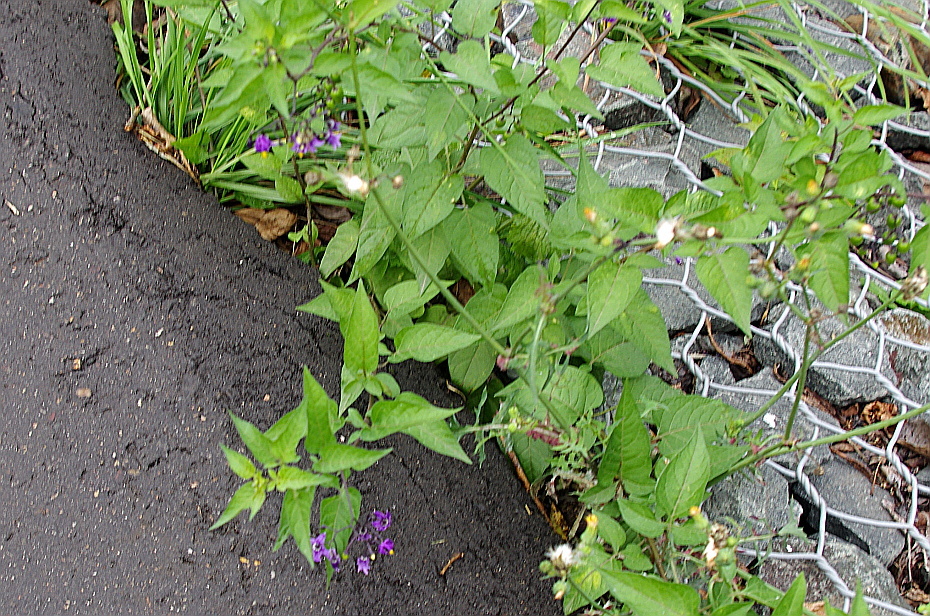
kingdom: Plantae
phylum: Tracheophyta
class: Magnoliopsida
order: Solanales
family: Solanaceae
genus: Solanum
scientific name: Solanum dulcamara
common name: Climbing nightshade
